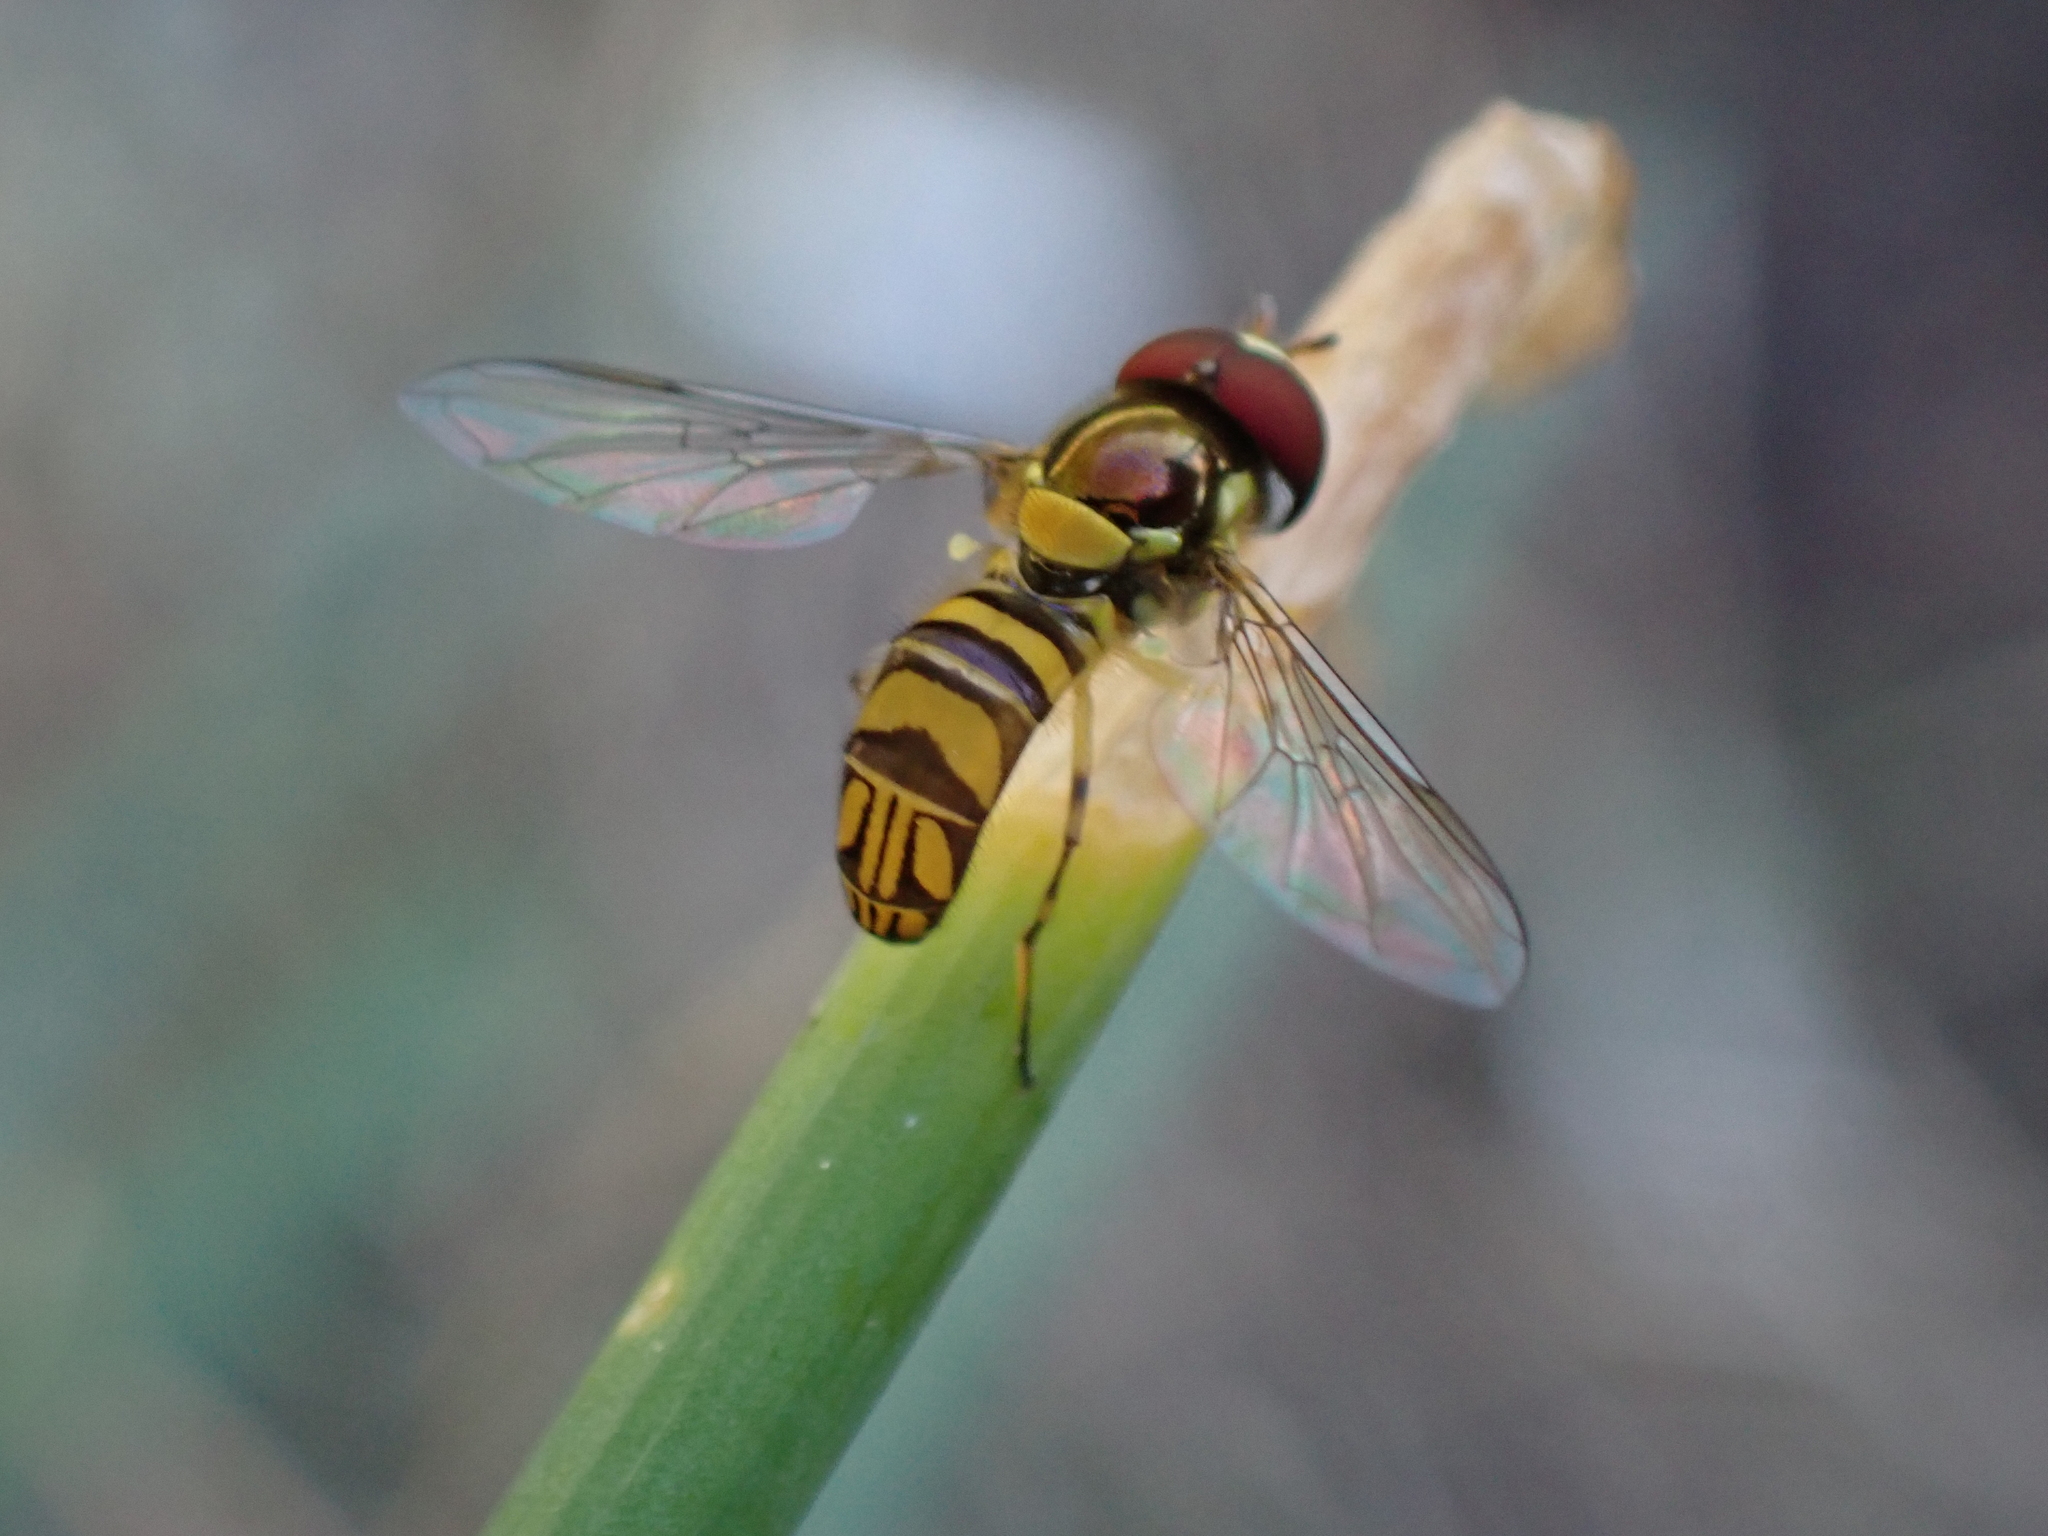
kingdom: Animalia
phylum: Arthropoda
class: Insecta
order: Diptera
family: Syrphidae
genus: Allograpta
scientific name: Allograpta obliqua
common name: Common oblique syrphid
